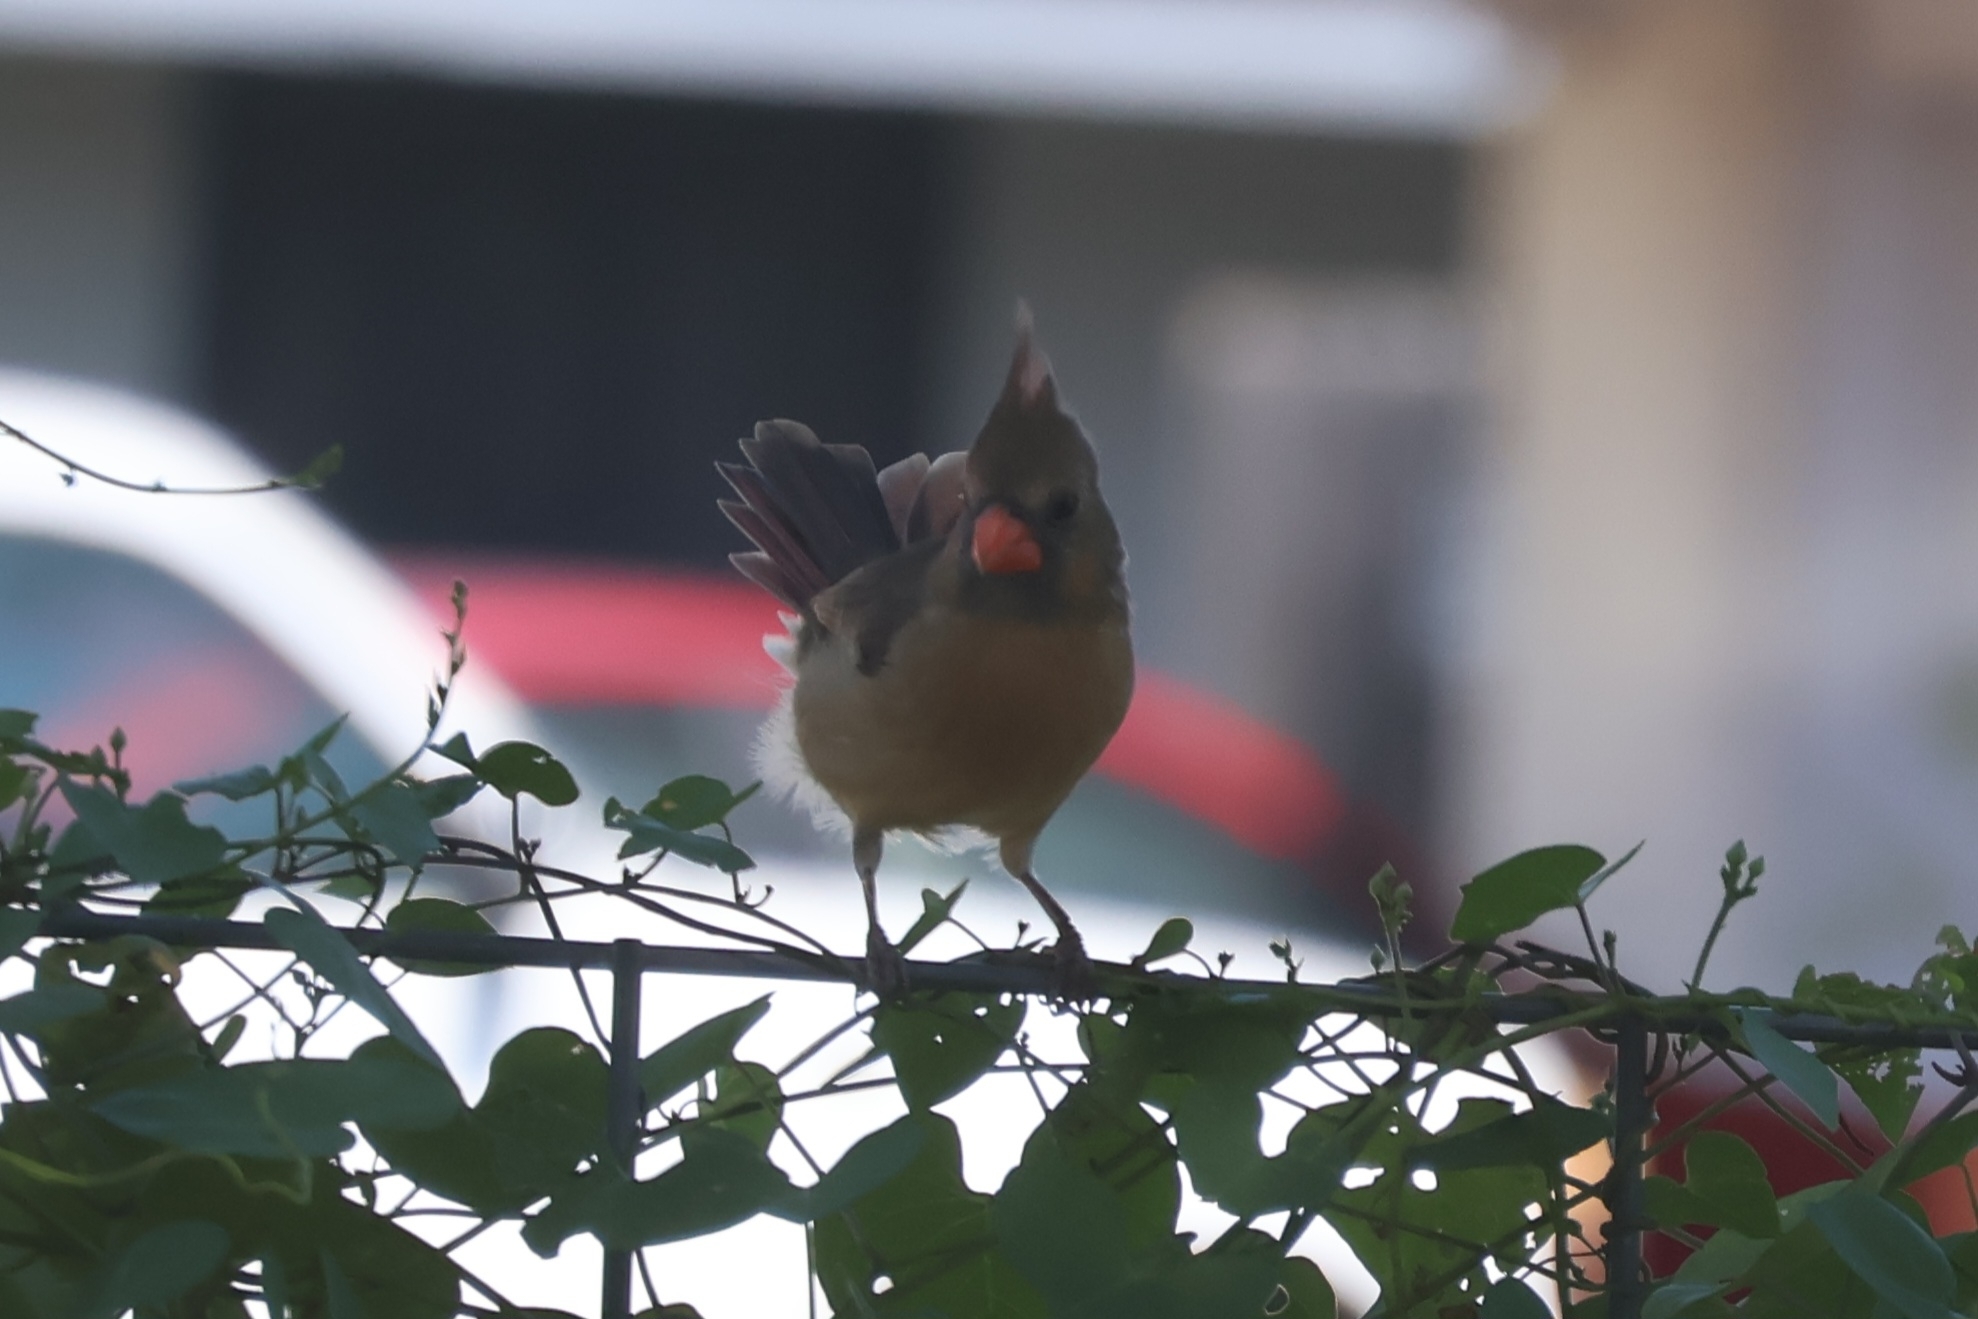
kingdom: Animalia
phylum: Chordata
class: Aves
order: Passeriformes
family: Cardinalidae
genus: Cardinalis
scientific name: Cardinalis cardinalis
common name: Northern cardinal
